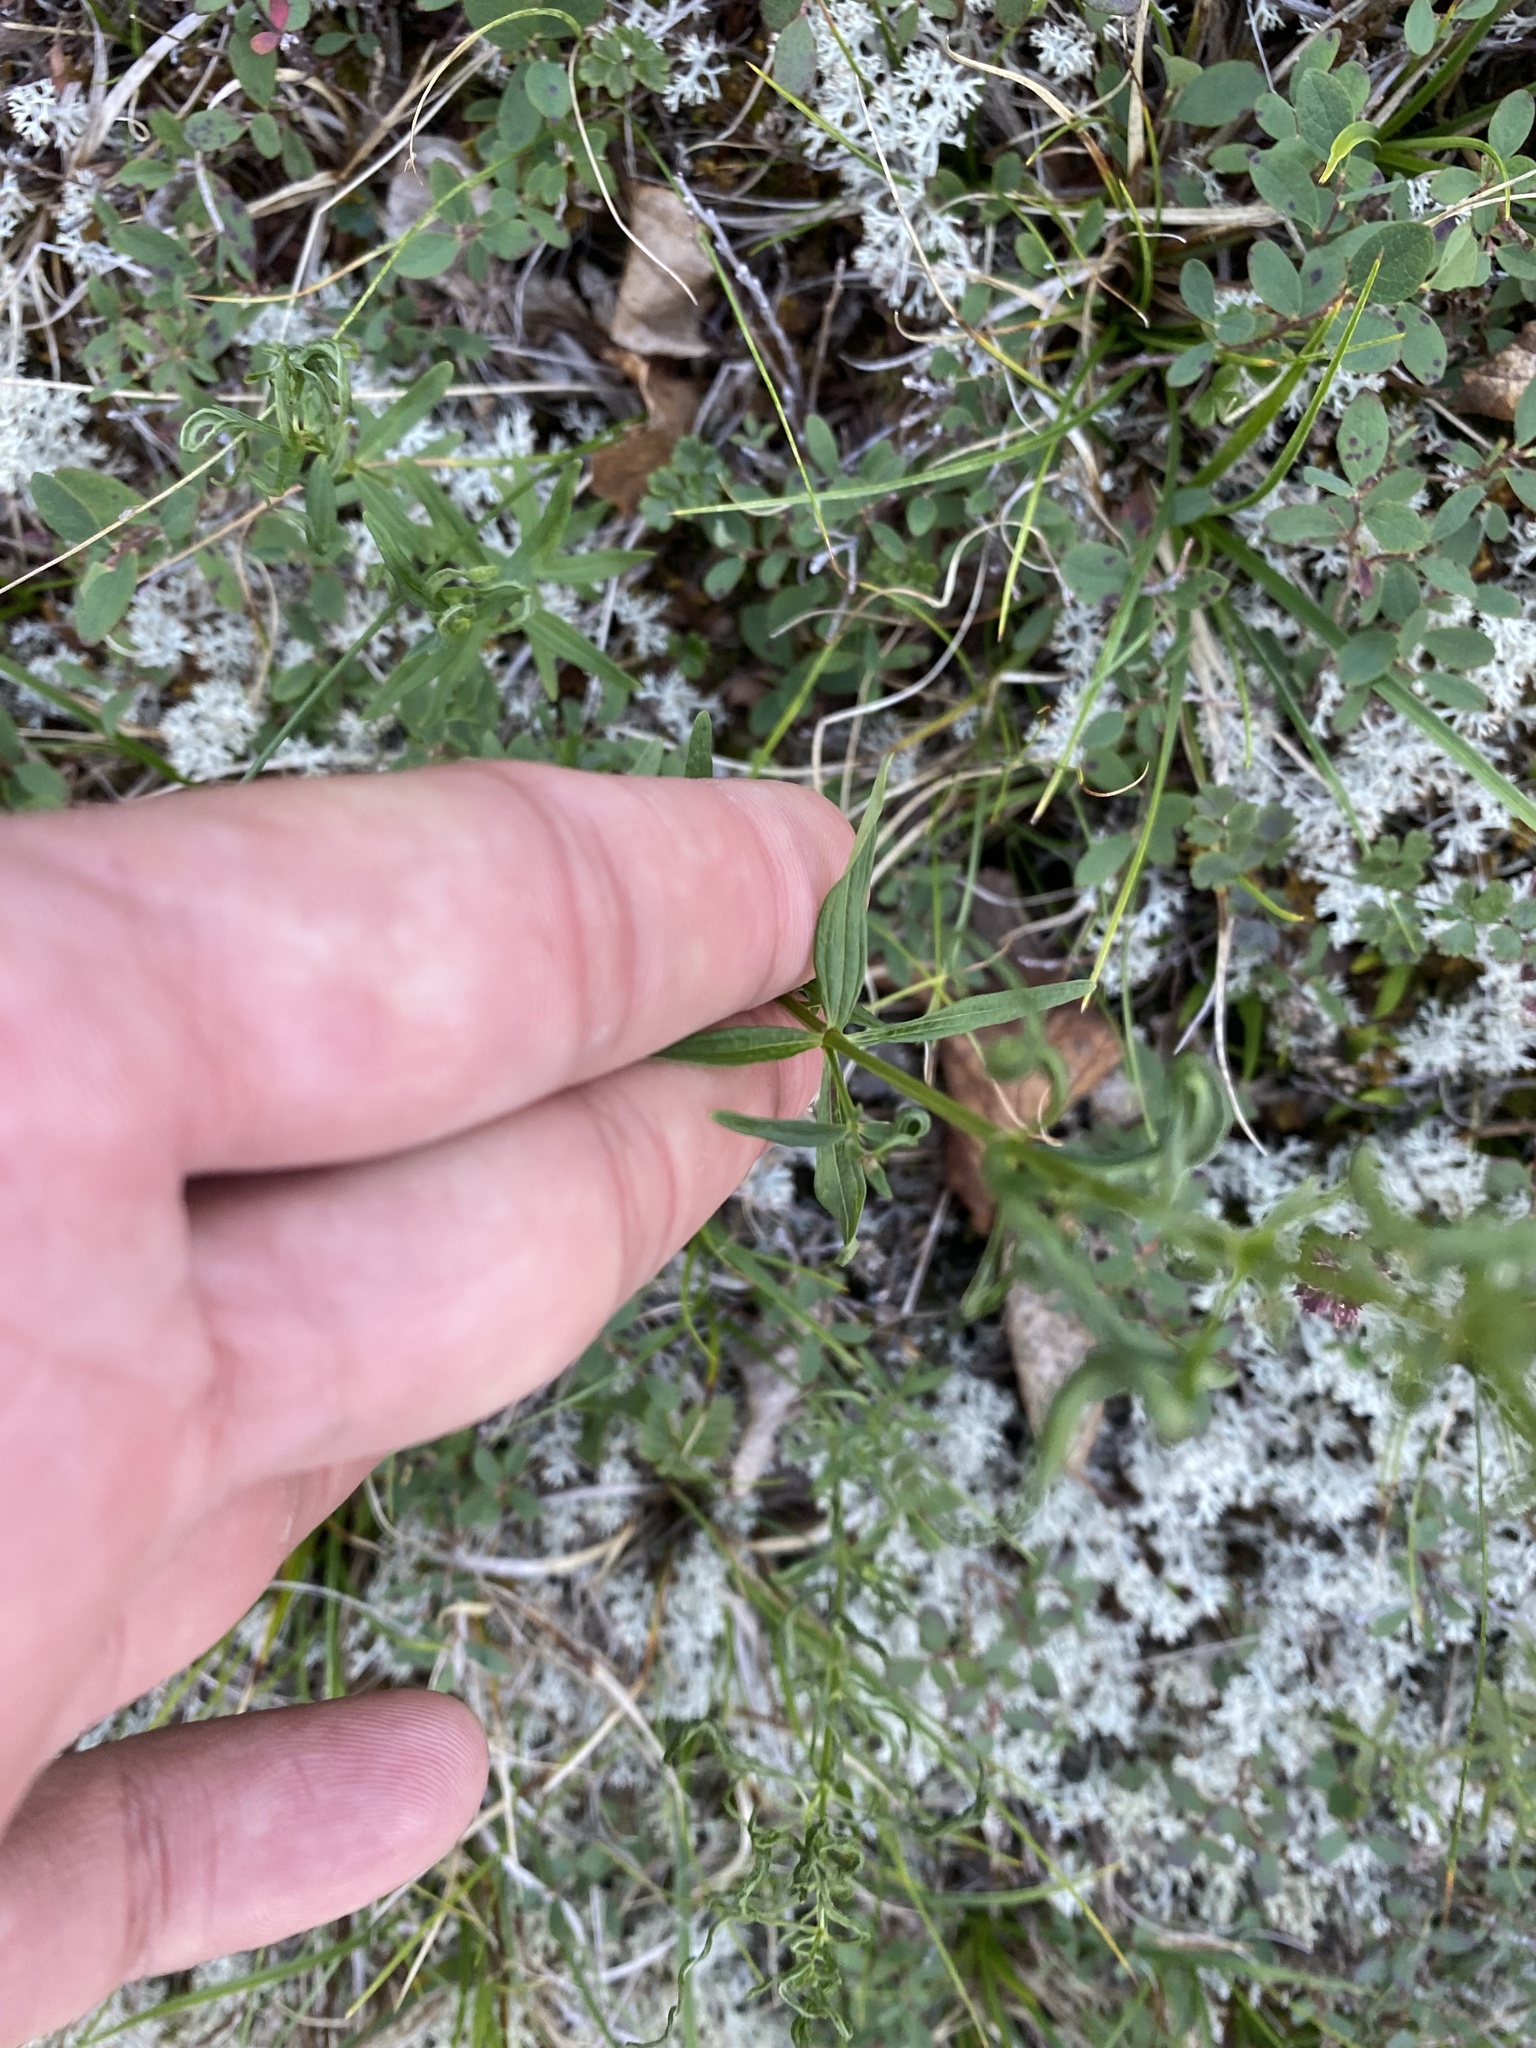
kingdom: Plantae
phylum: Tracheophyta
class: Magnoliopsida
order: Gentianales
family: Rubiaceae
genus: Galium
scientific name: Galium boreale
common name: Northern bedstraw
